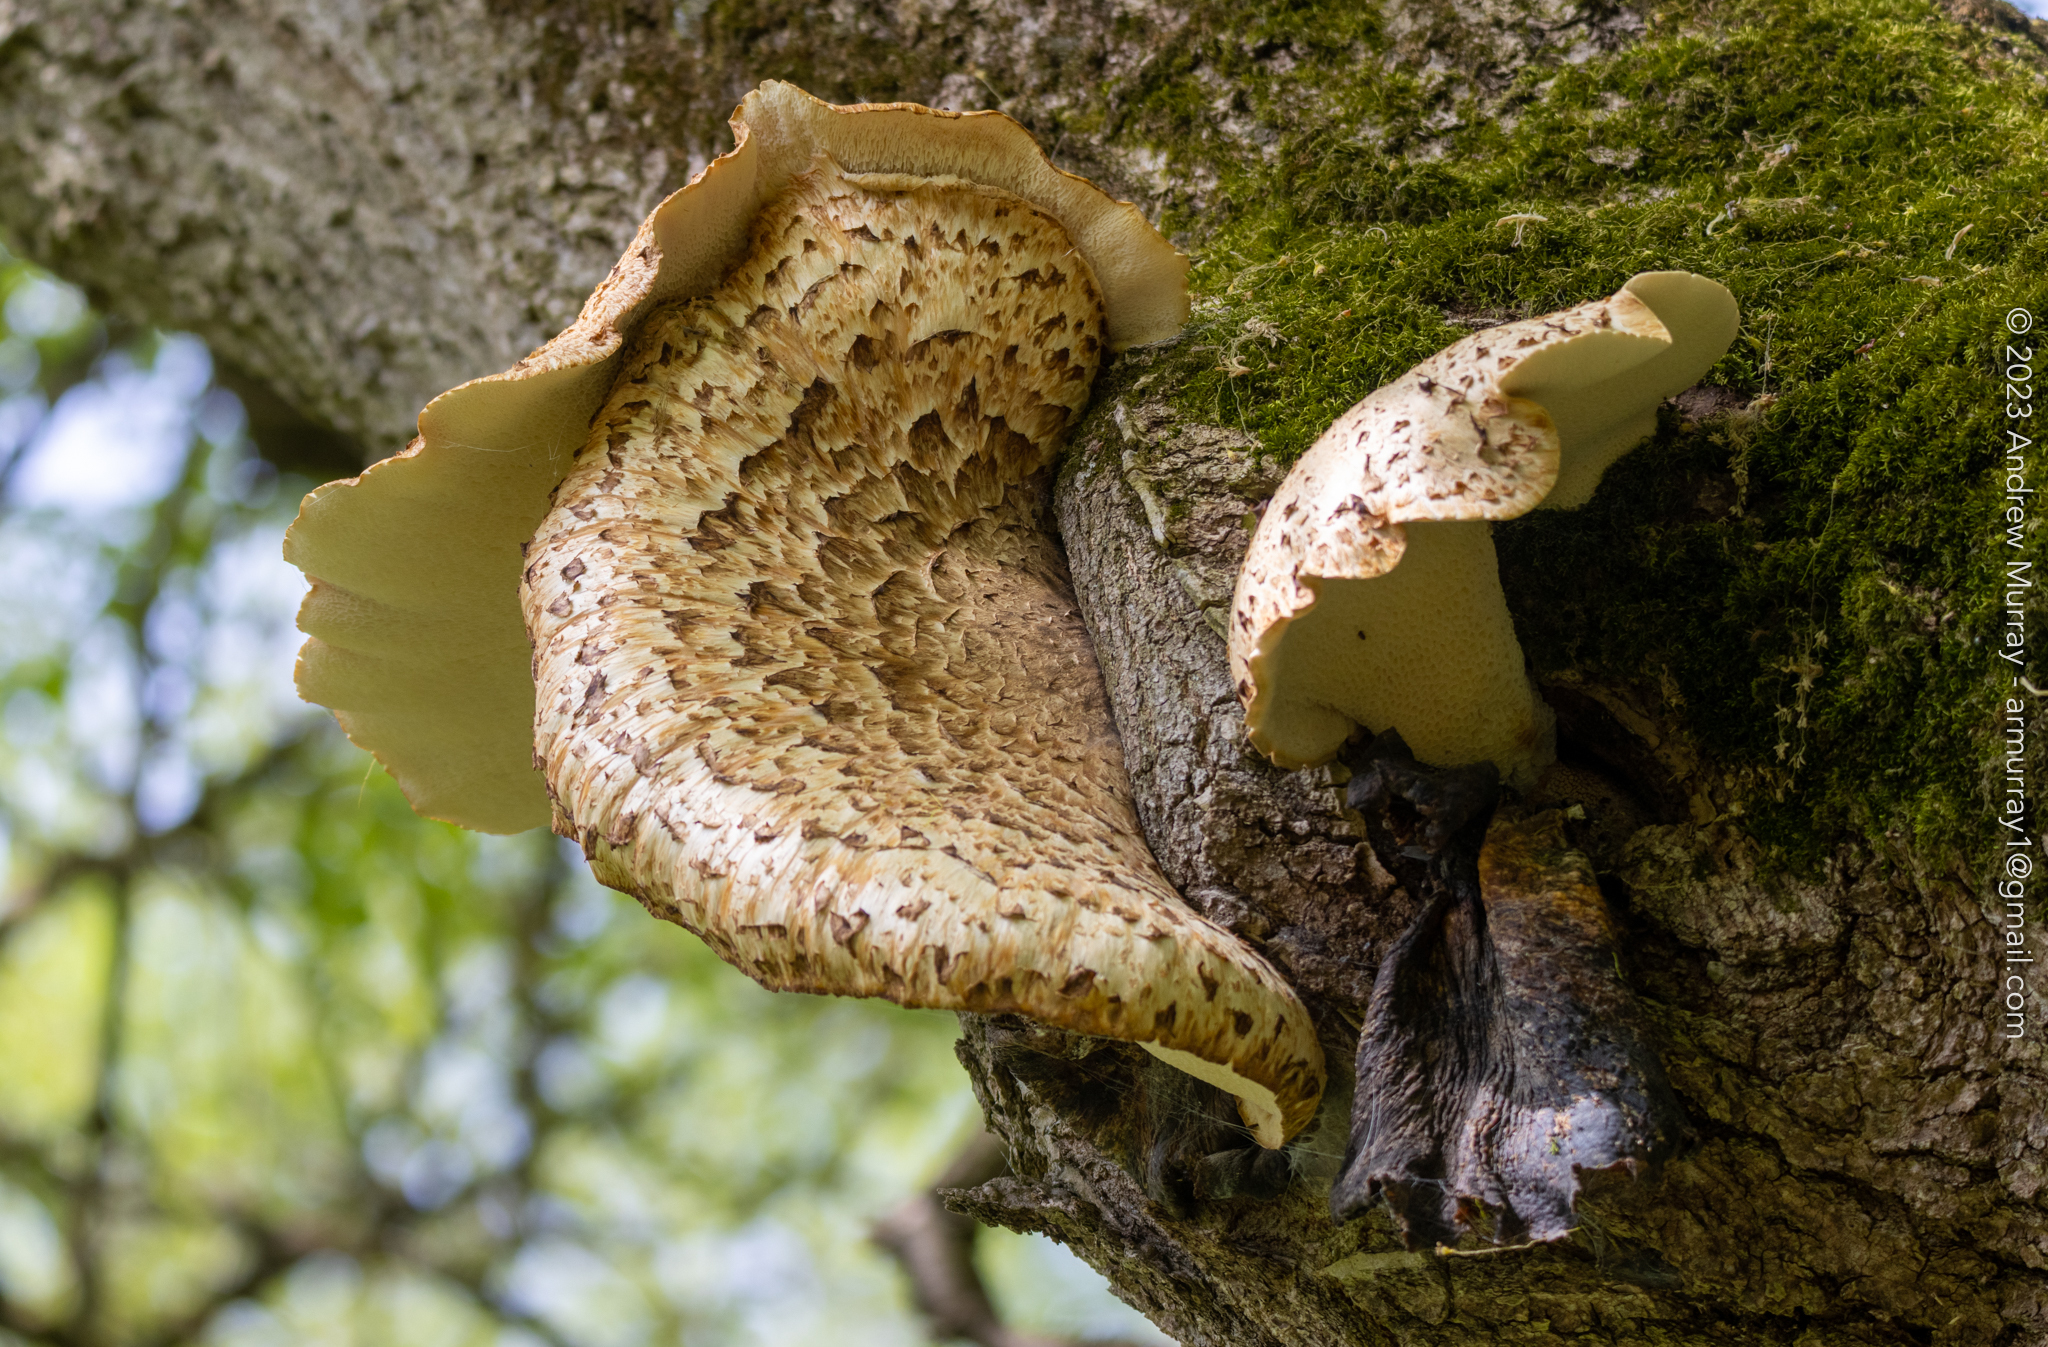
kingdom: Fungi
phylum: Basidiomycota
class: Agaricomycetes
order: Polyporales
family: Polyporaceae
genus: Cerioporus
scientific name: Cerioporus squamosus
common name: Dryad's saddle
